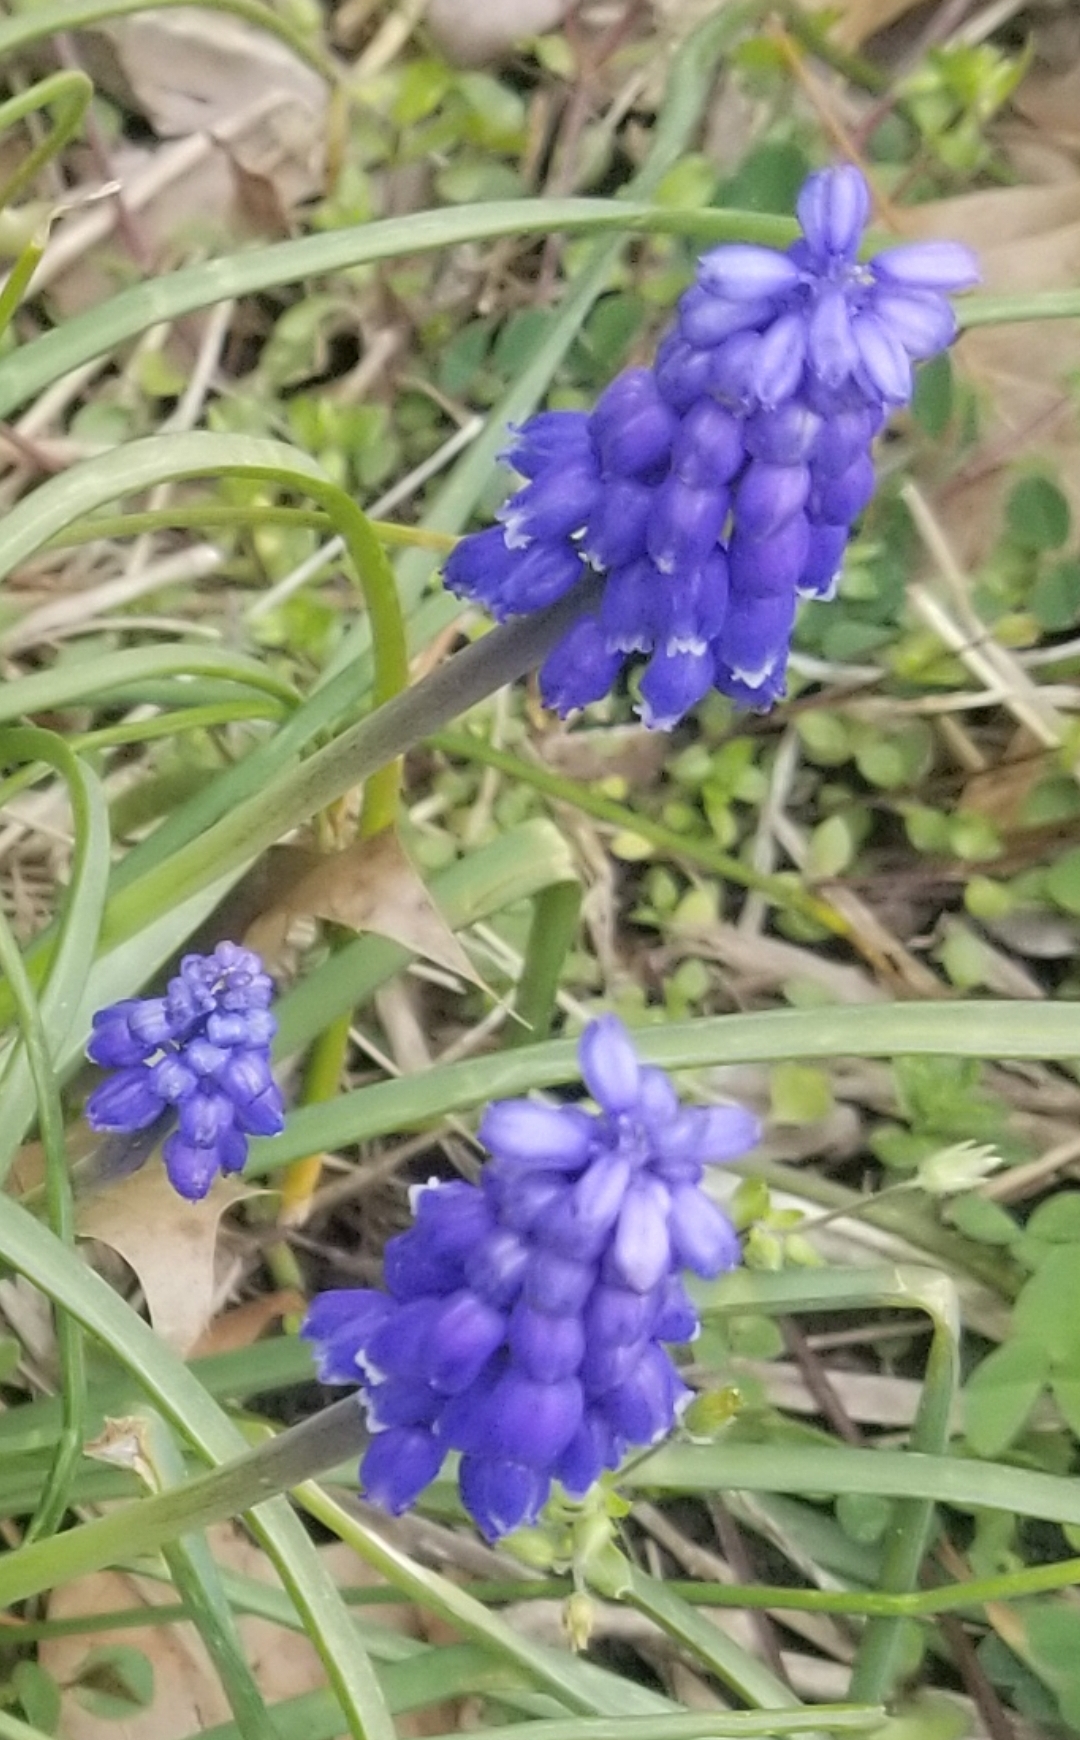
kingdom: Plantae
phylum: Tracheophyta
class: Liliopsida
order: Asparagales
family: Asparagaceae
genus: Muscari
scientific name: Muscari botryoides
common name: Compact grape-hyacinth
